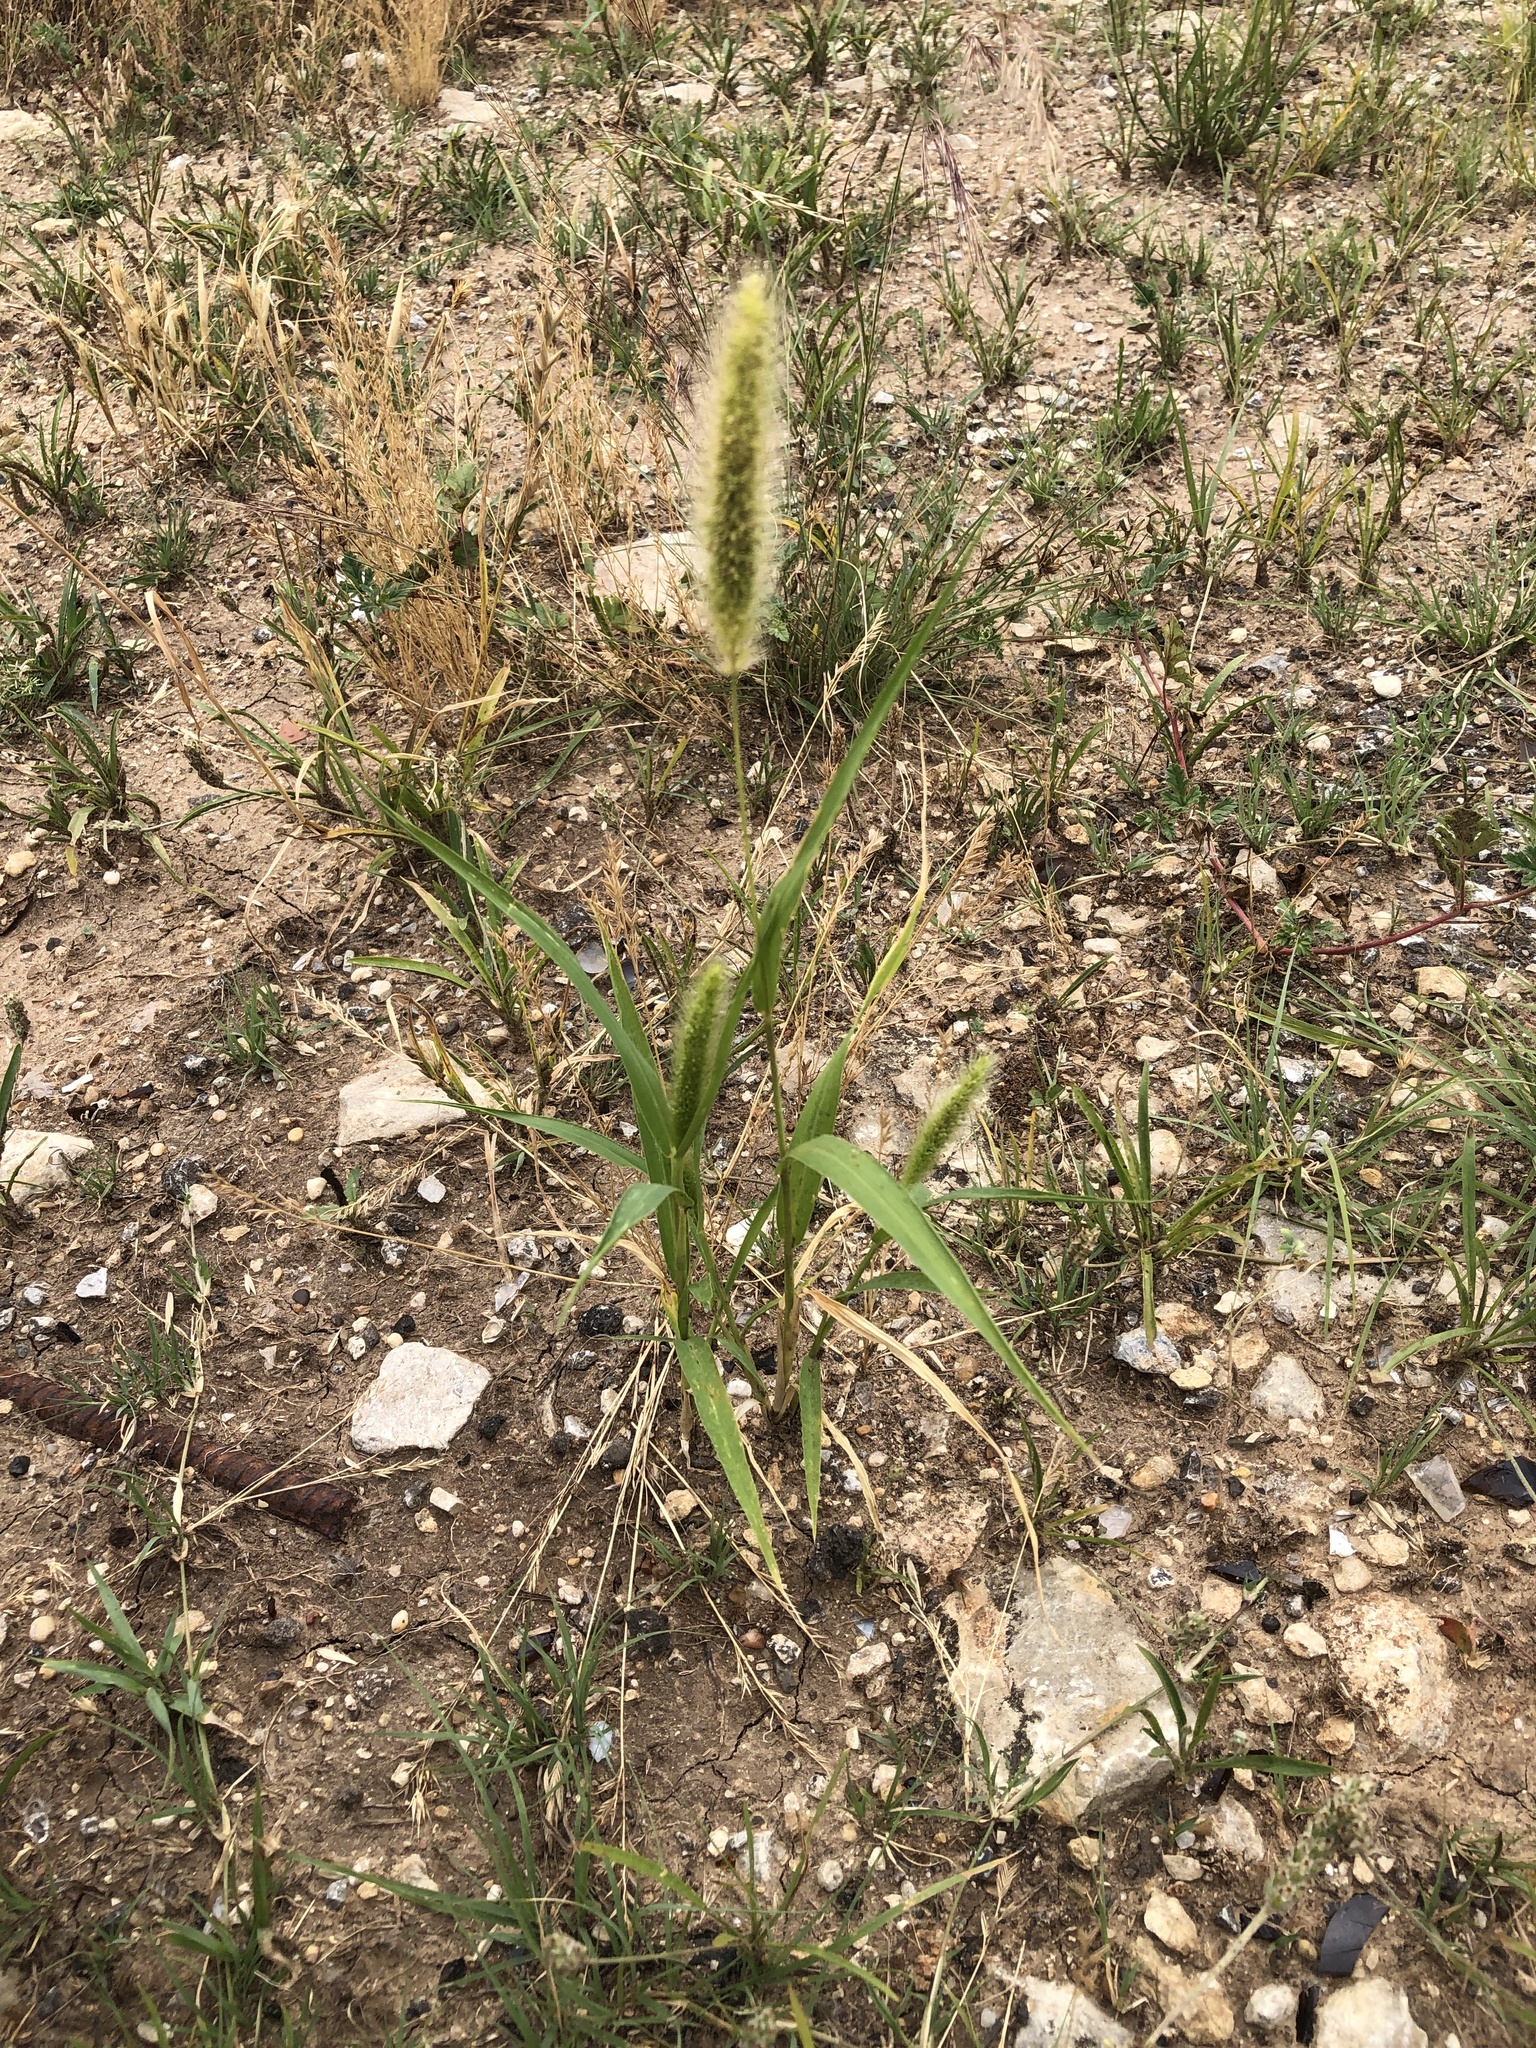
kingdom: Plantae
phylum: Tracheophyta
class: Liliopsida
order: Poales
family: Poaceae
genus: Setaria
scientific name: Setaria viridis
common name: Green bristlegrass
